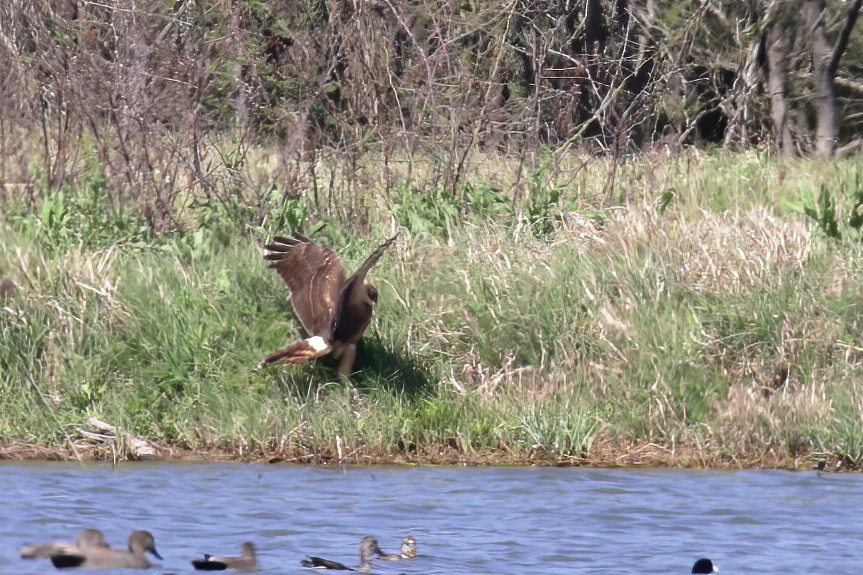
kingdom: Animalia
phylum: Chordata
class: Aves
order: Accipitriformes
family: Accipitridae
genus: Circus
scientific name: Circus cyaneus
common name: Hen harrier
